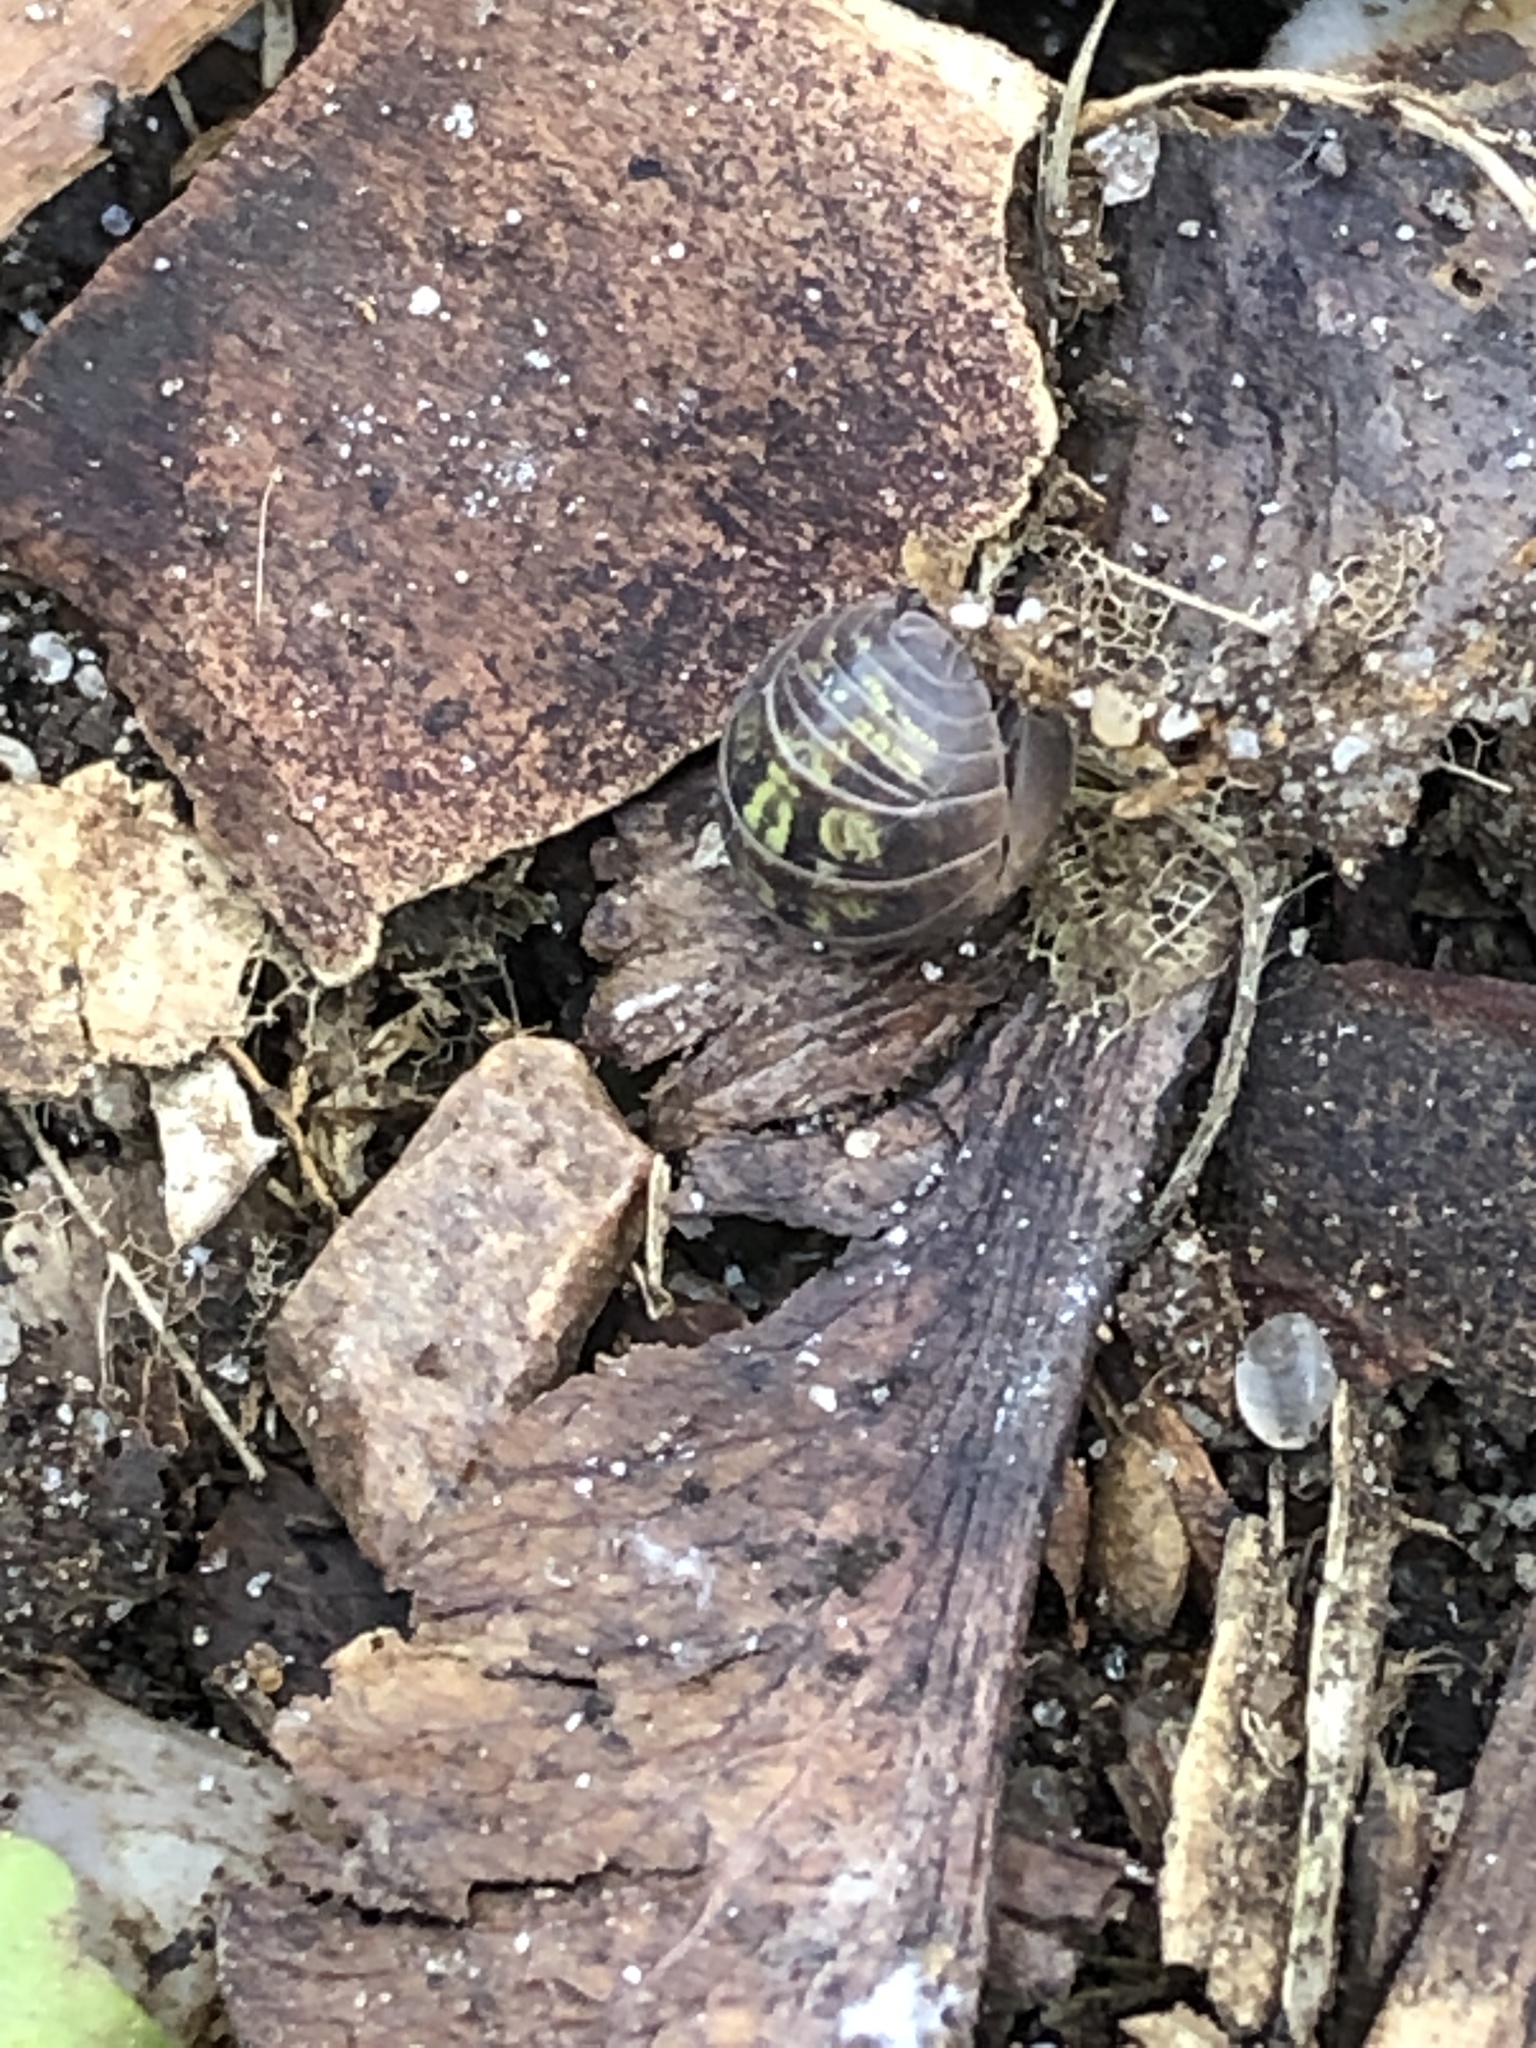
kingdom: Animalia
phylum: Arthropoda
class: Malacostraca
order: Isopoda
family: Armadillidiidae
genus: Armadillidium
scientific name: Armadillidium vulgare
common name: Common pill woodlouse
